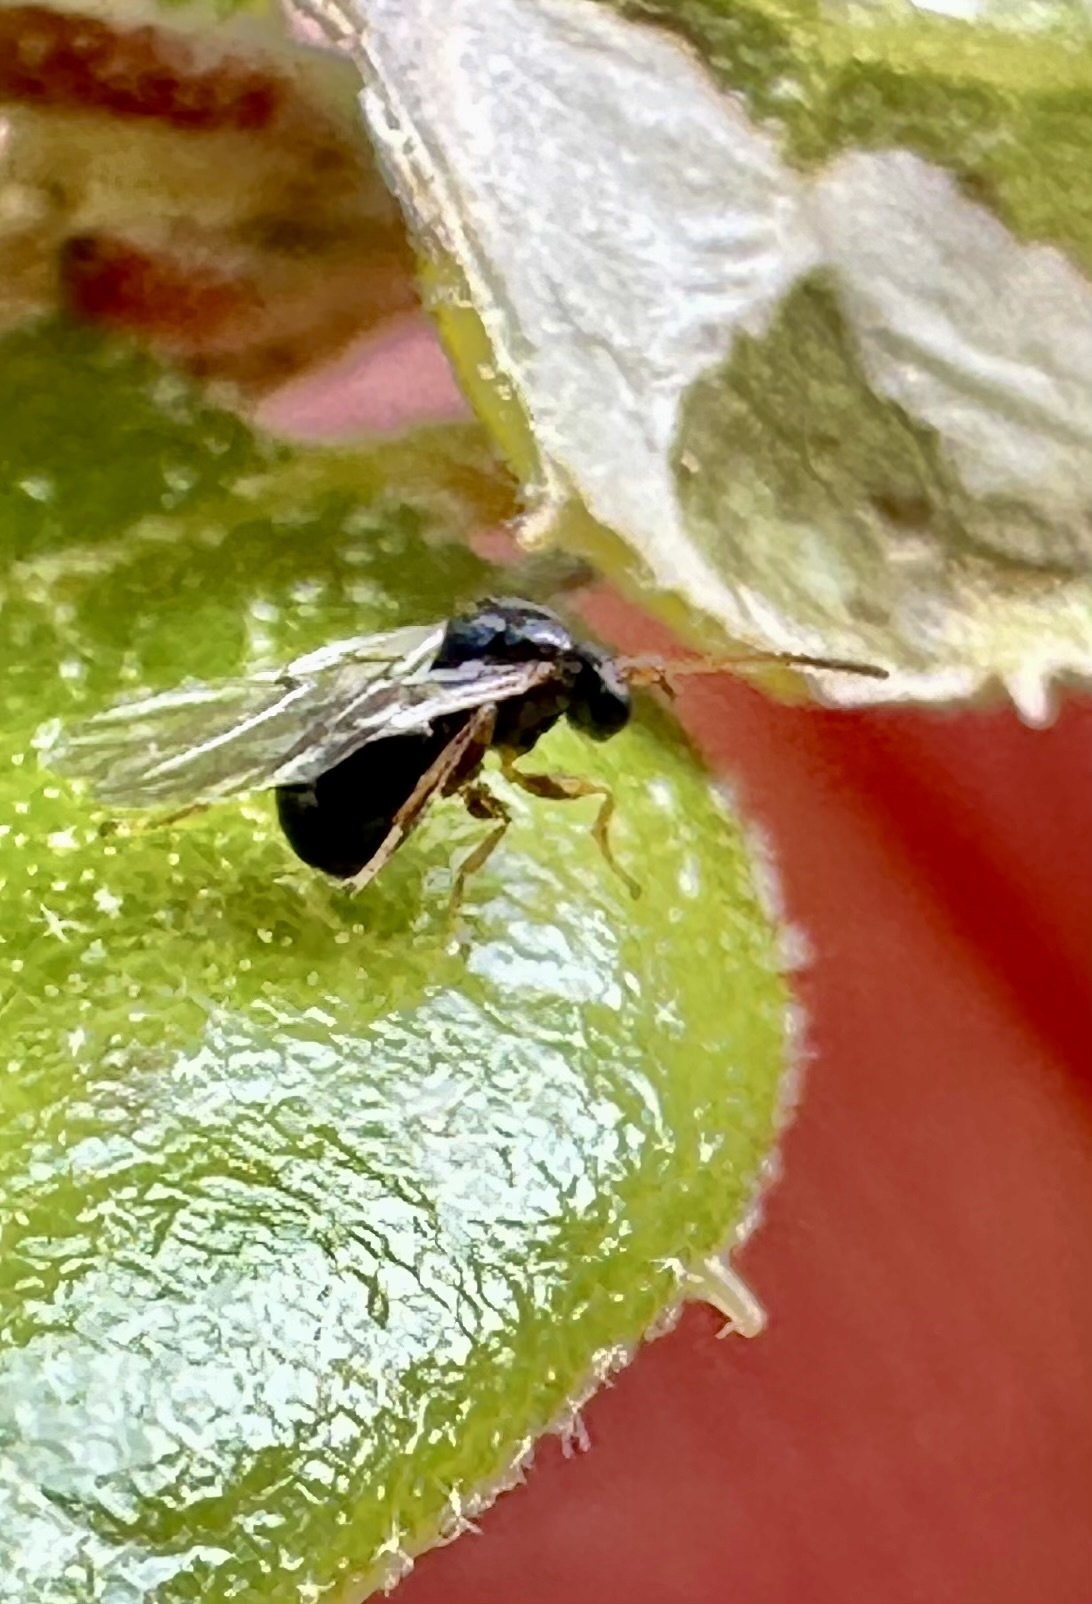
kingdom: Animalia
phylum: Arthropoda
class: Insecta
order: Hymenoptera
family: Cynipidae
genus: Dryocosmus
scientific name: Dryocosmus
